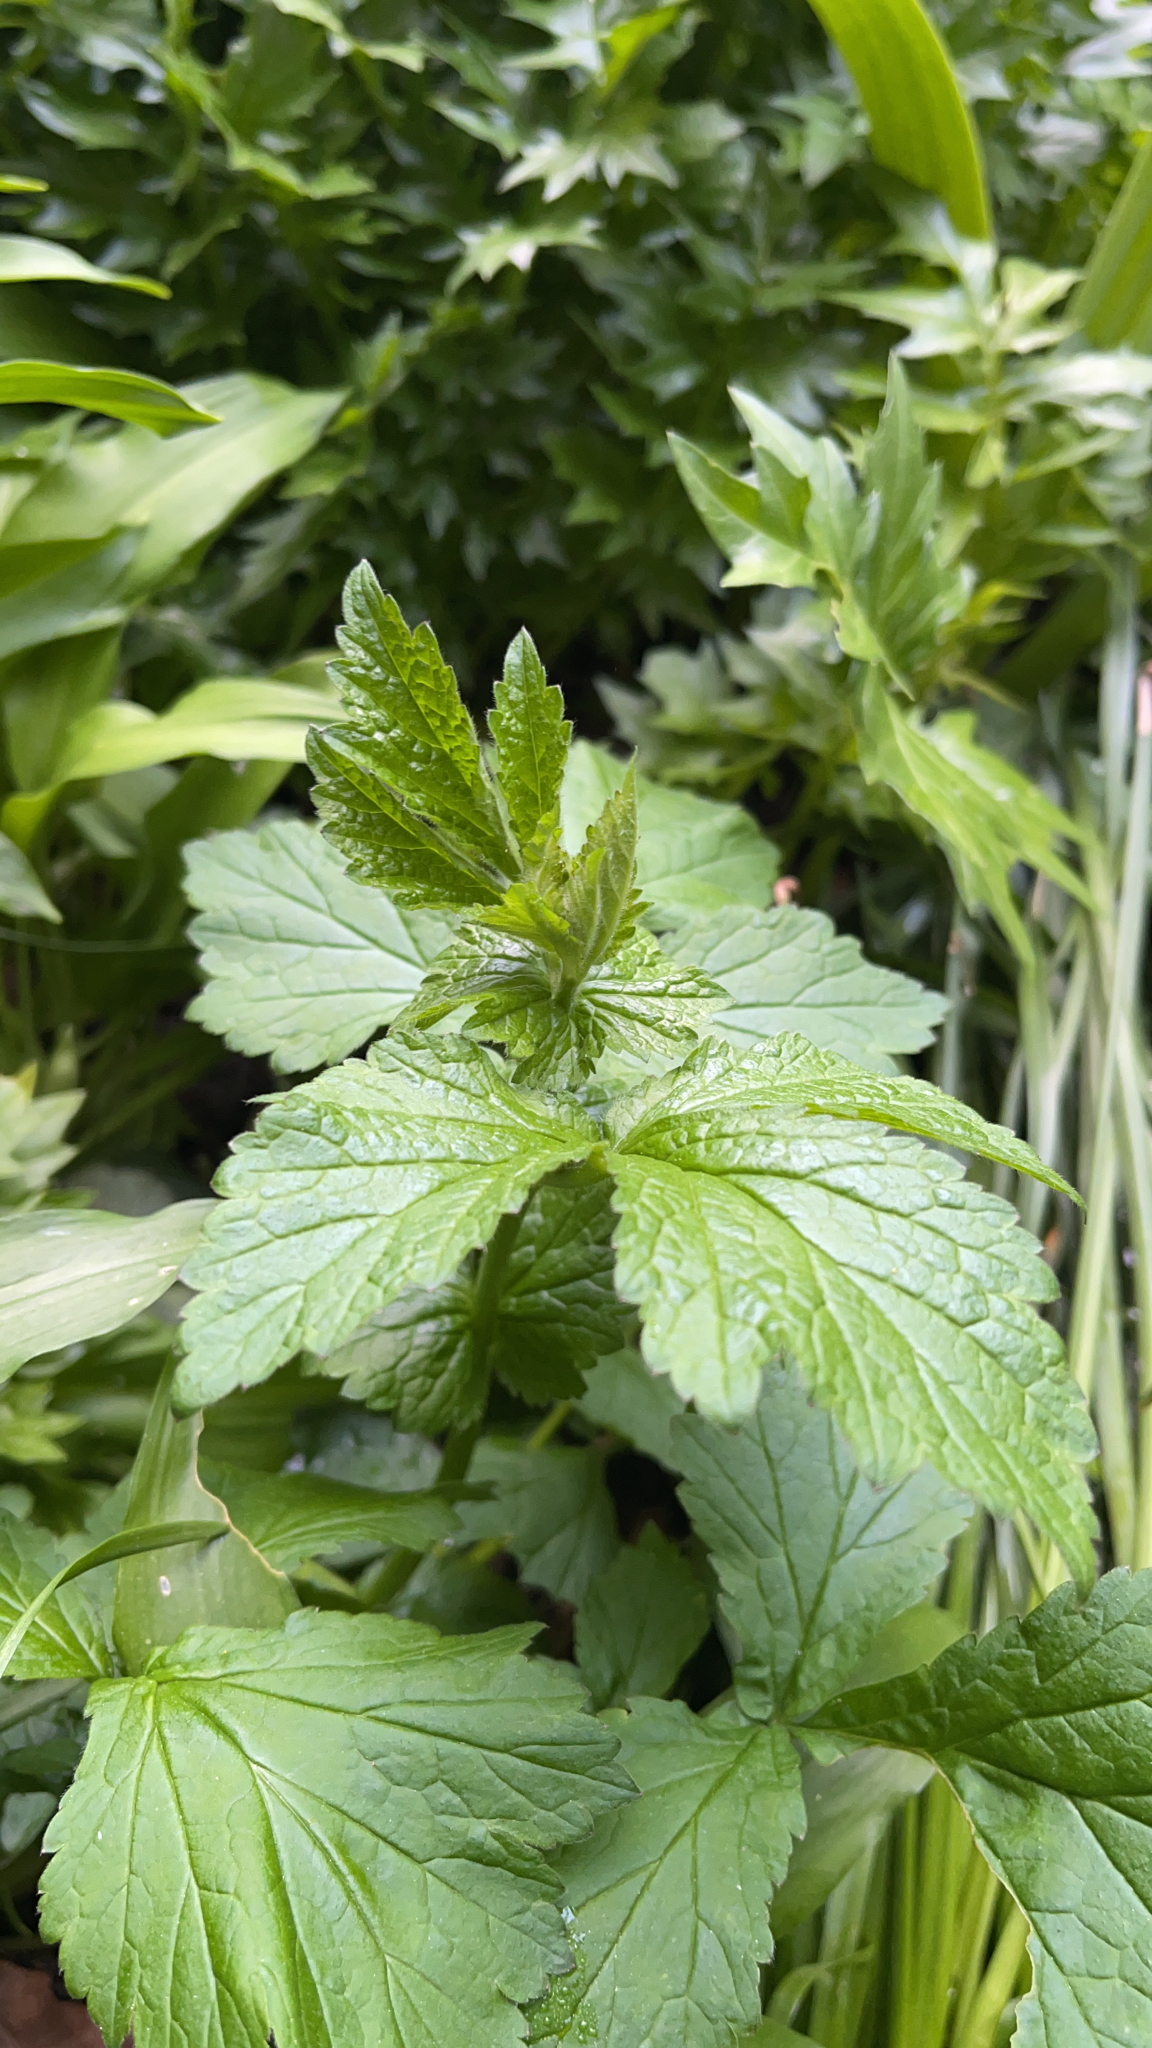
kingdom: Plantae
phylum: Tracheophyta
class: Magnoliopsida
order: Rosales
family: Rosaceae
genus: Geum
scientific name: Geum urbanum
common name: Wood avens
